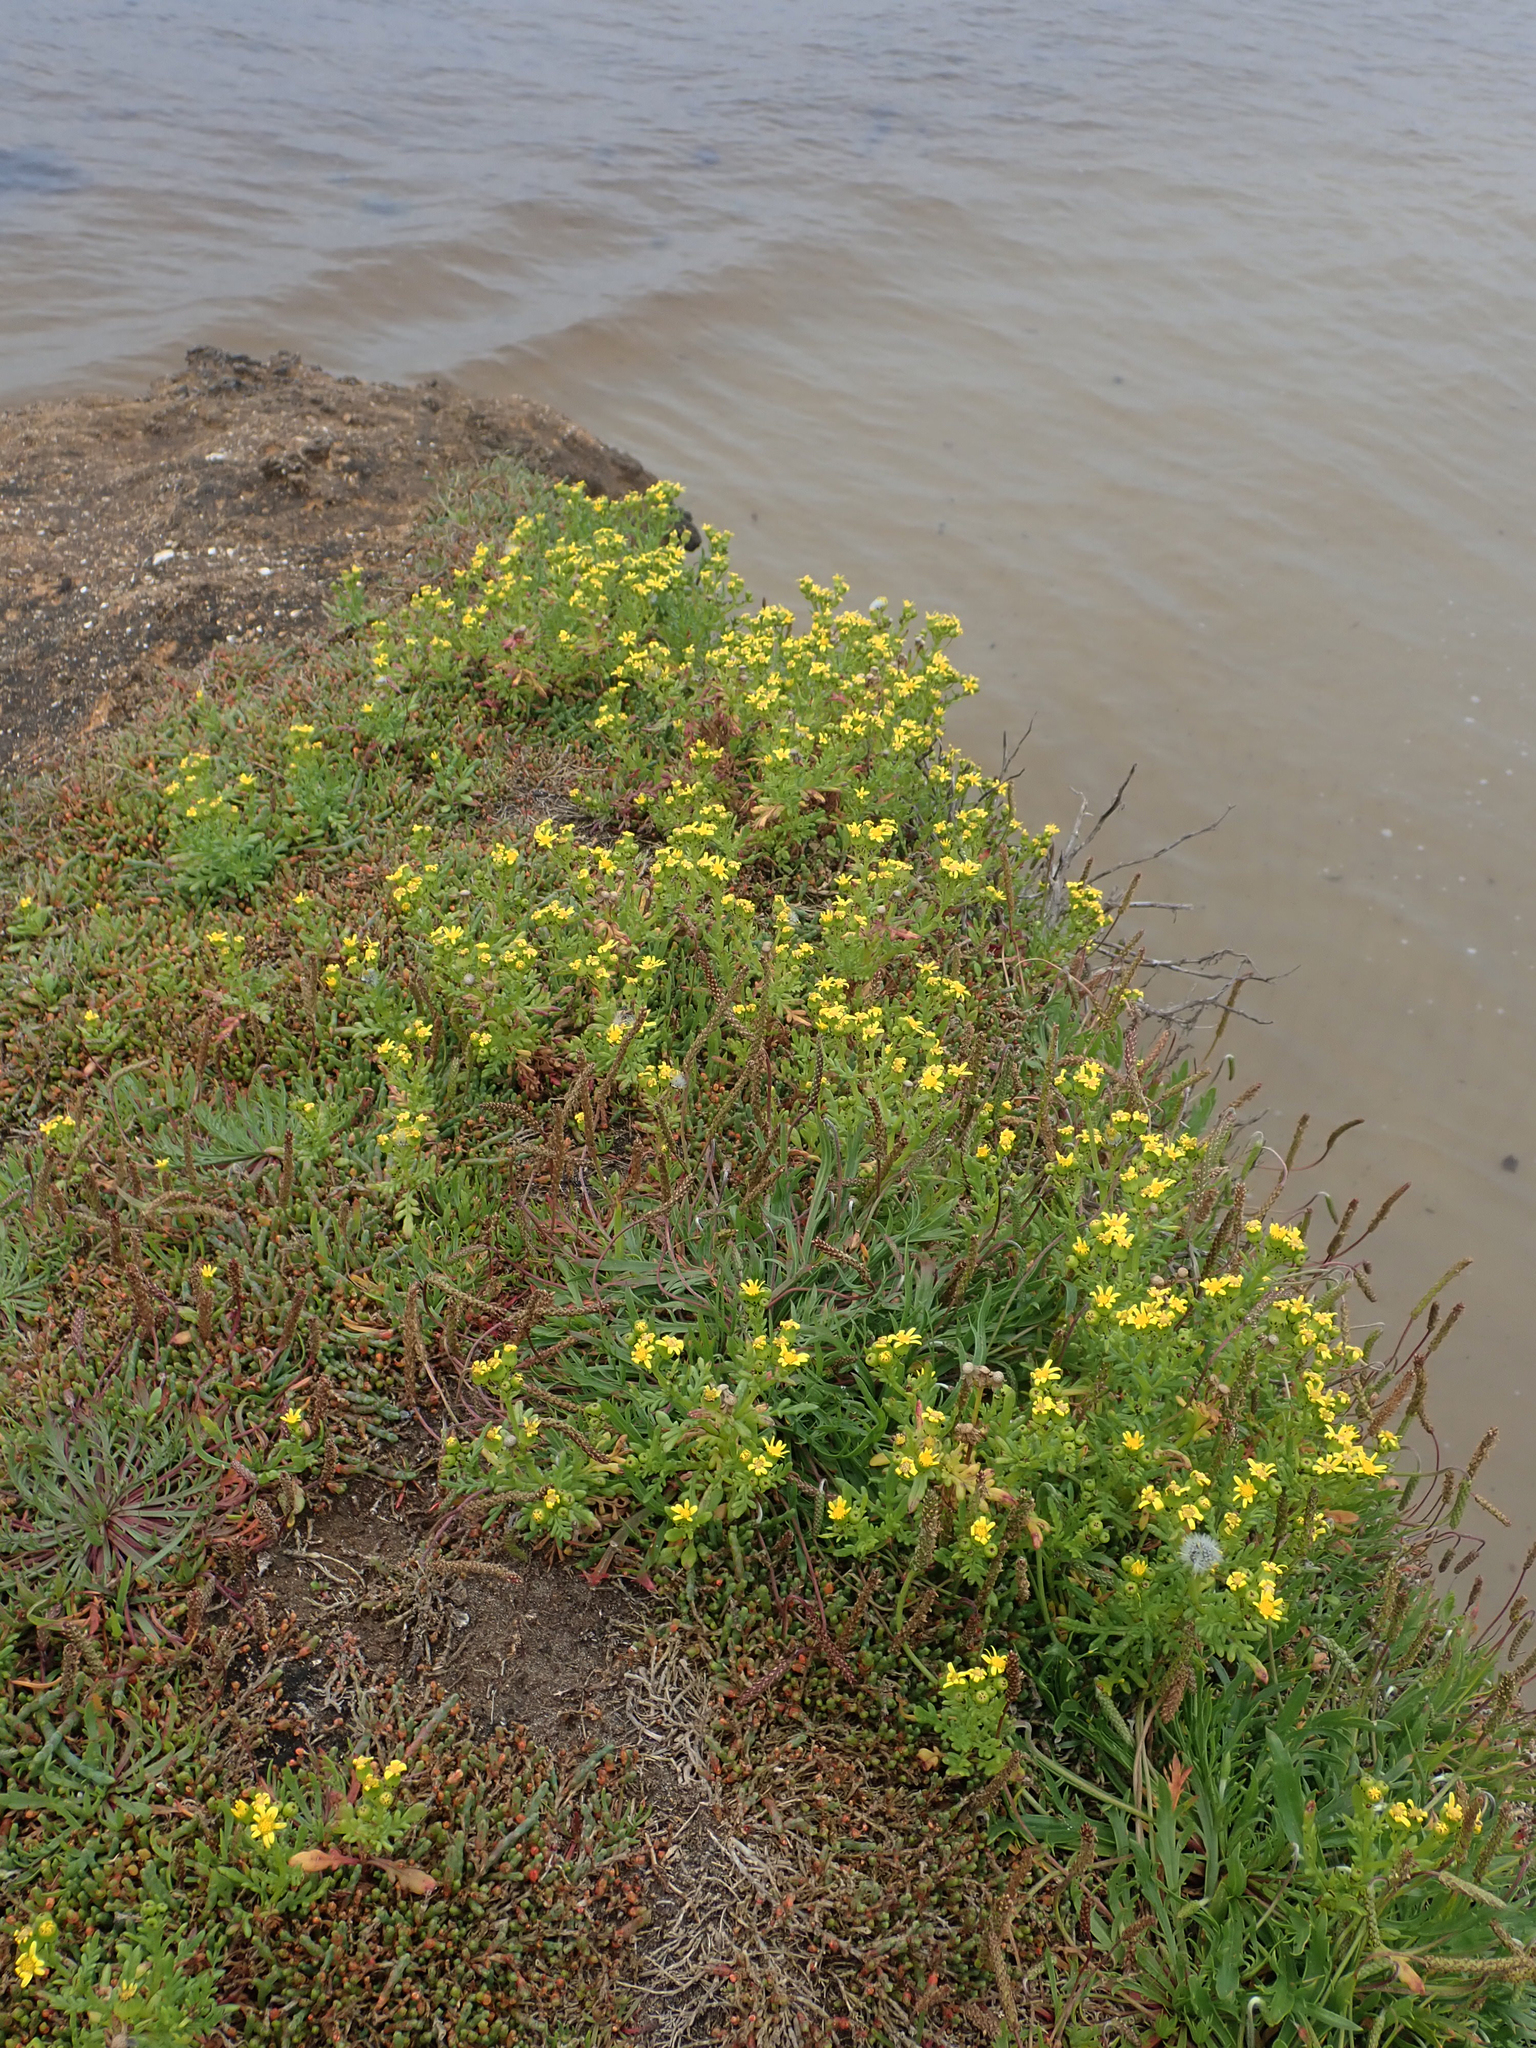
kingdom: Plantae
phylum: Tracheophyta
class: Magnoliopsida
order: Asterales
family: Asteraceae
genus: Senecio
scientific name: Senecio lautus
